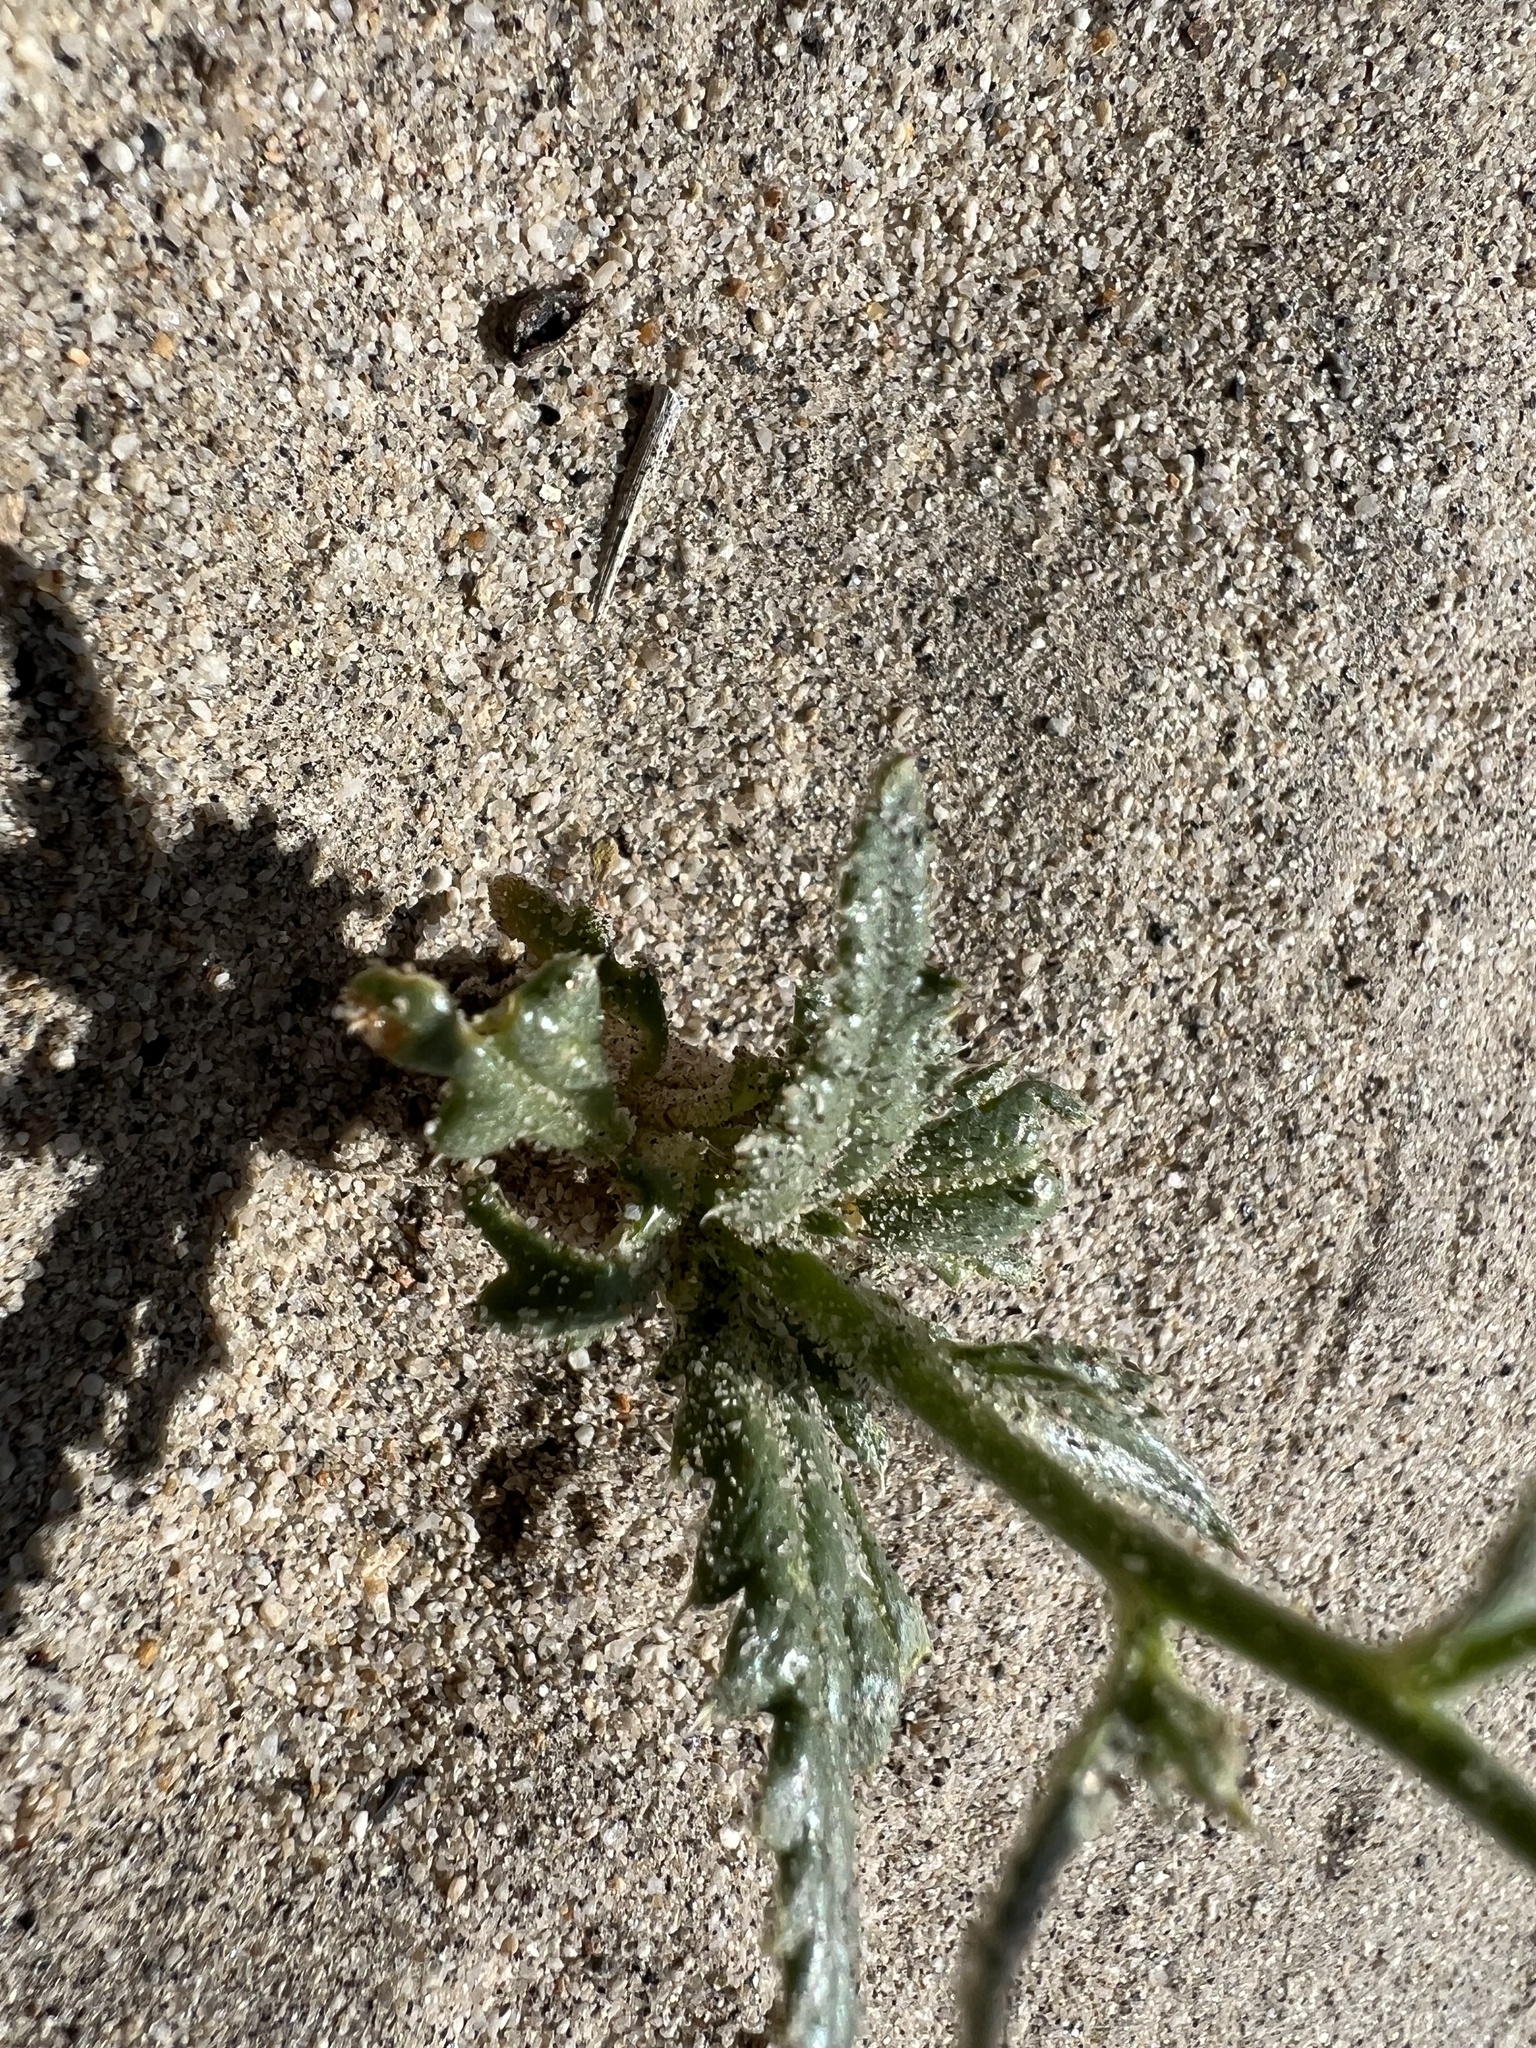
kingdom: Plantae
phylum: Tracheophyta
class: Magnoliopsida
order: Ericales
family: Polemoniaceae
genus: Aliciella
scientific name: Aliciella leptomeria
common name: Sand gilia
